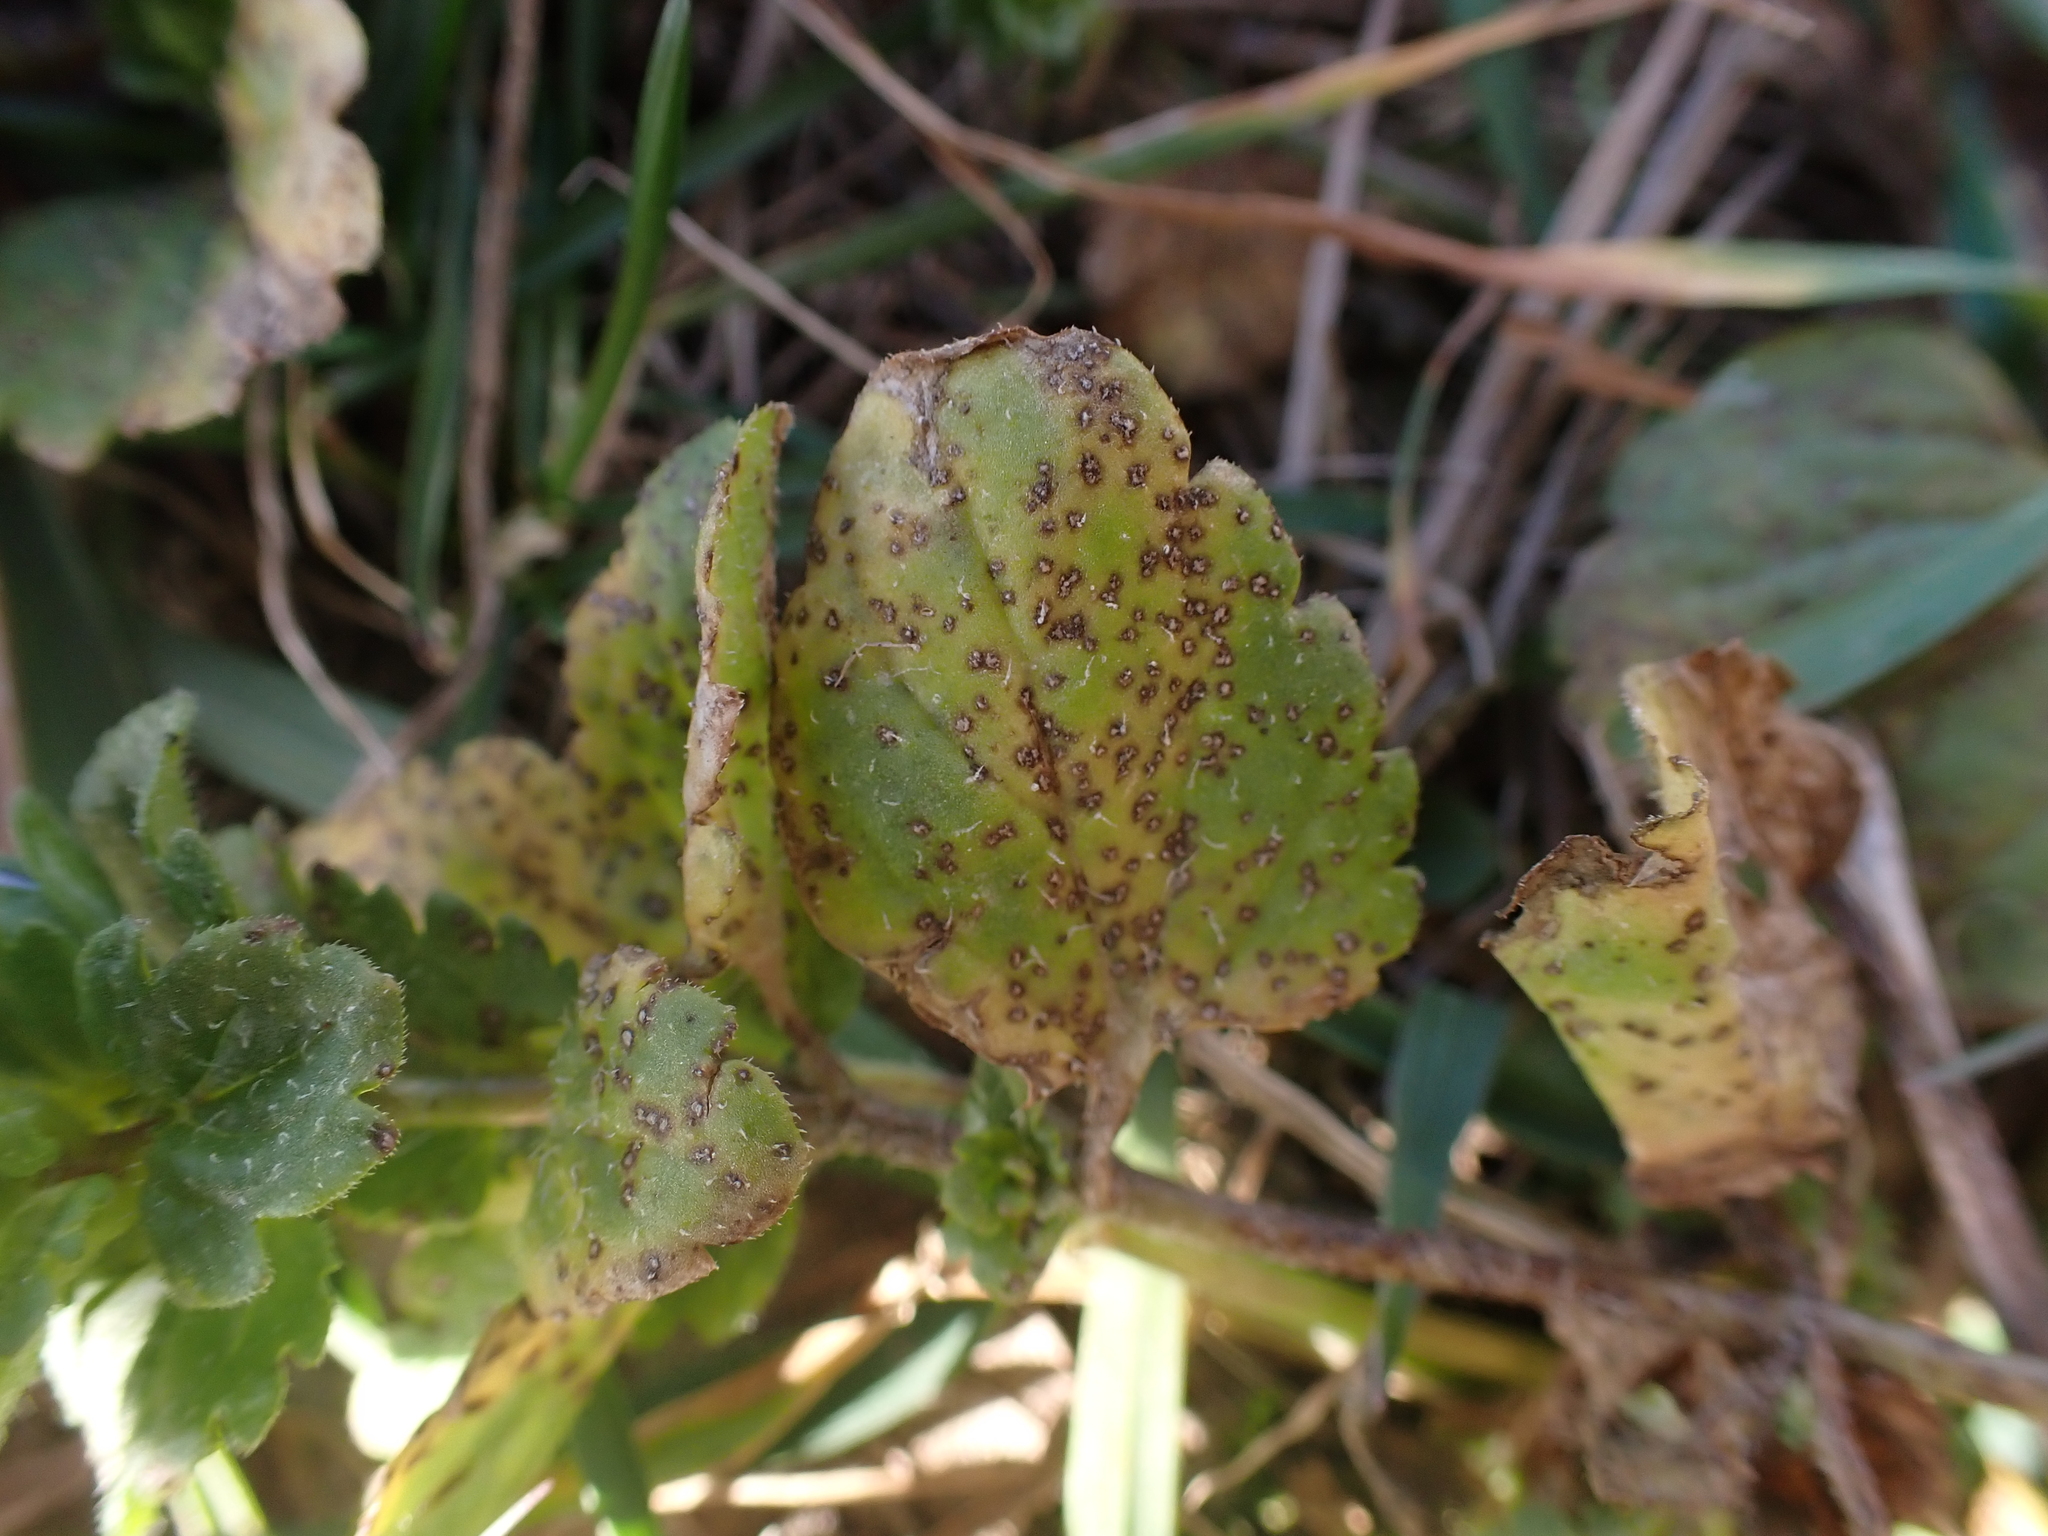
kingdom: Fungi
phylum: Ascomycota
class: Dothideomycetes
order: Asterinales
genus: Discogloeum
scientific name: Discogloeum veronicae
